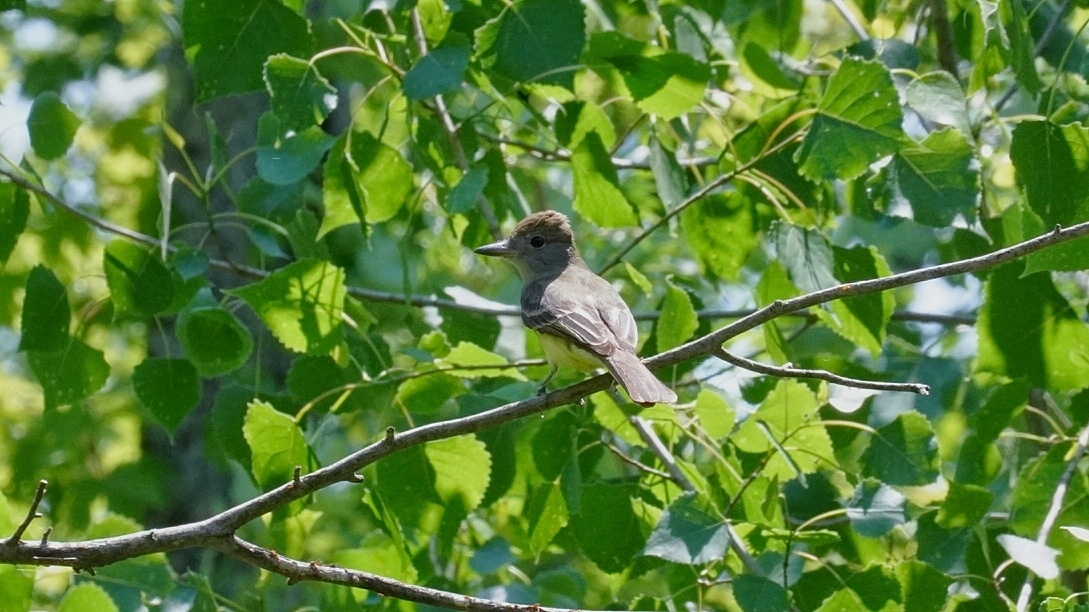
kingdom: Animalia
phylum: Chordata
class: Aves
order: Passeriformes
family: Tyrannidae
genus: Myiarchus
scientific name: Myiarchus crinitus
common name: Great crested flycatcher
